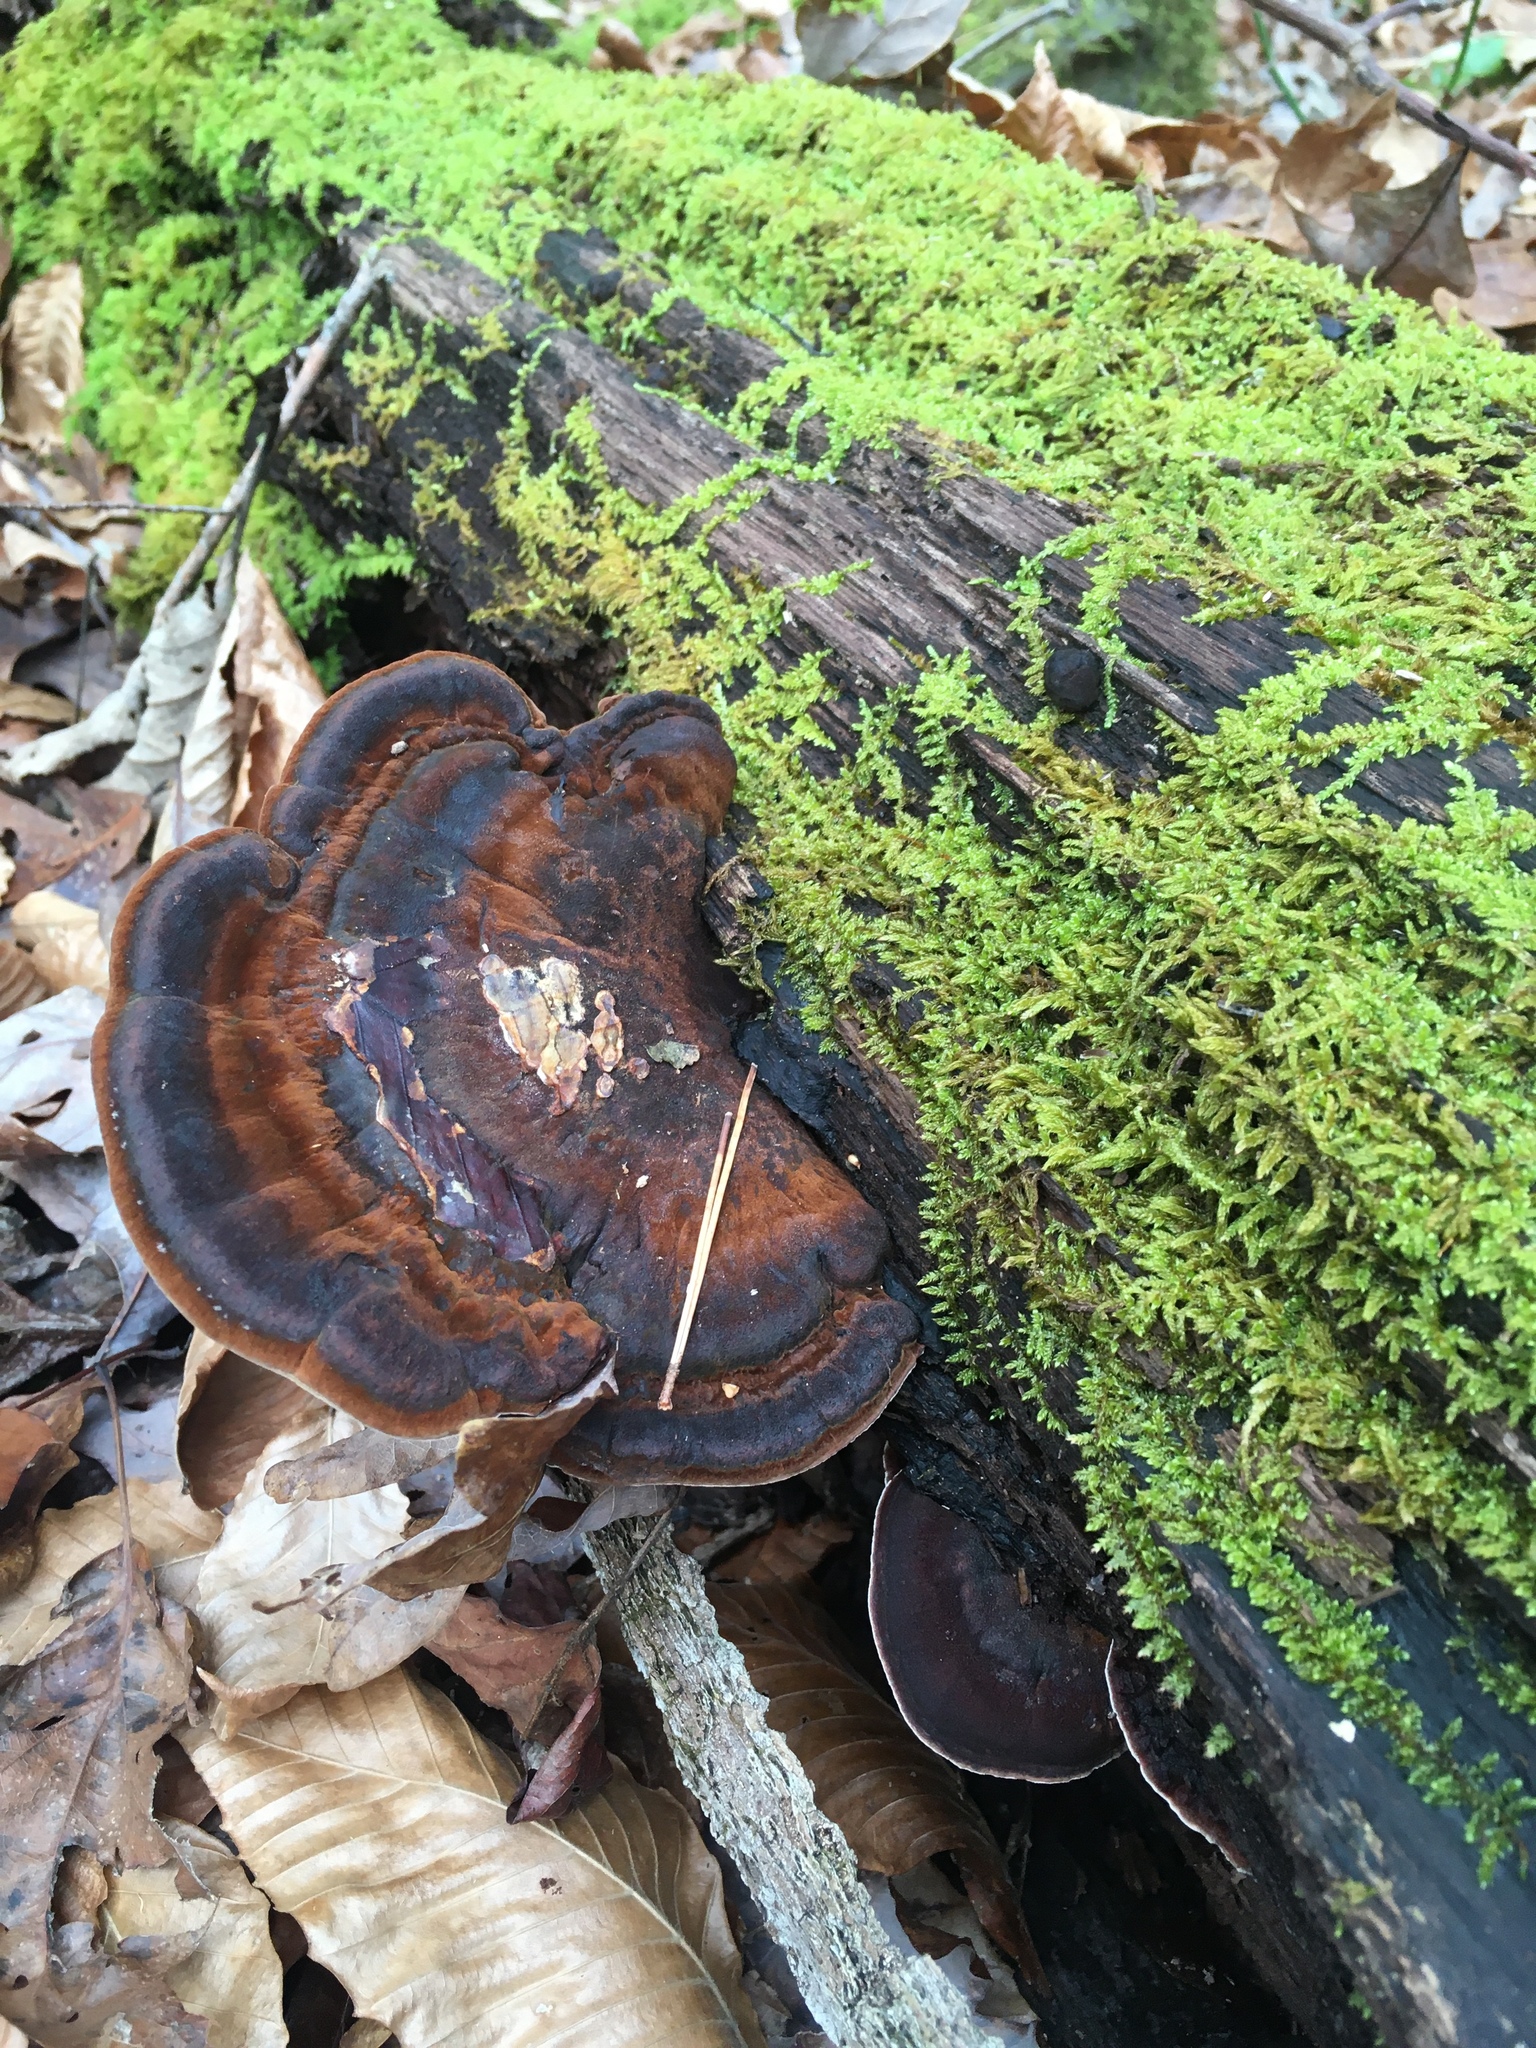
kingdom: Fungi
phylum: Basidiomycota
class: Agaricomycetes
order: Polyporales
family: Ischnodermataceae
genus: Ischnoderma
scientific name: Ischnoderma resinosum
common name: Resinous polypore
